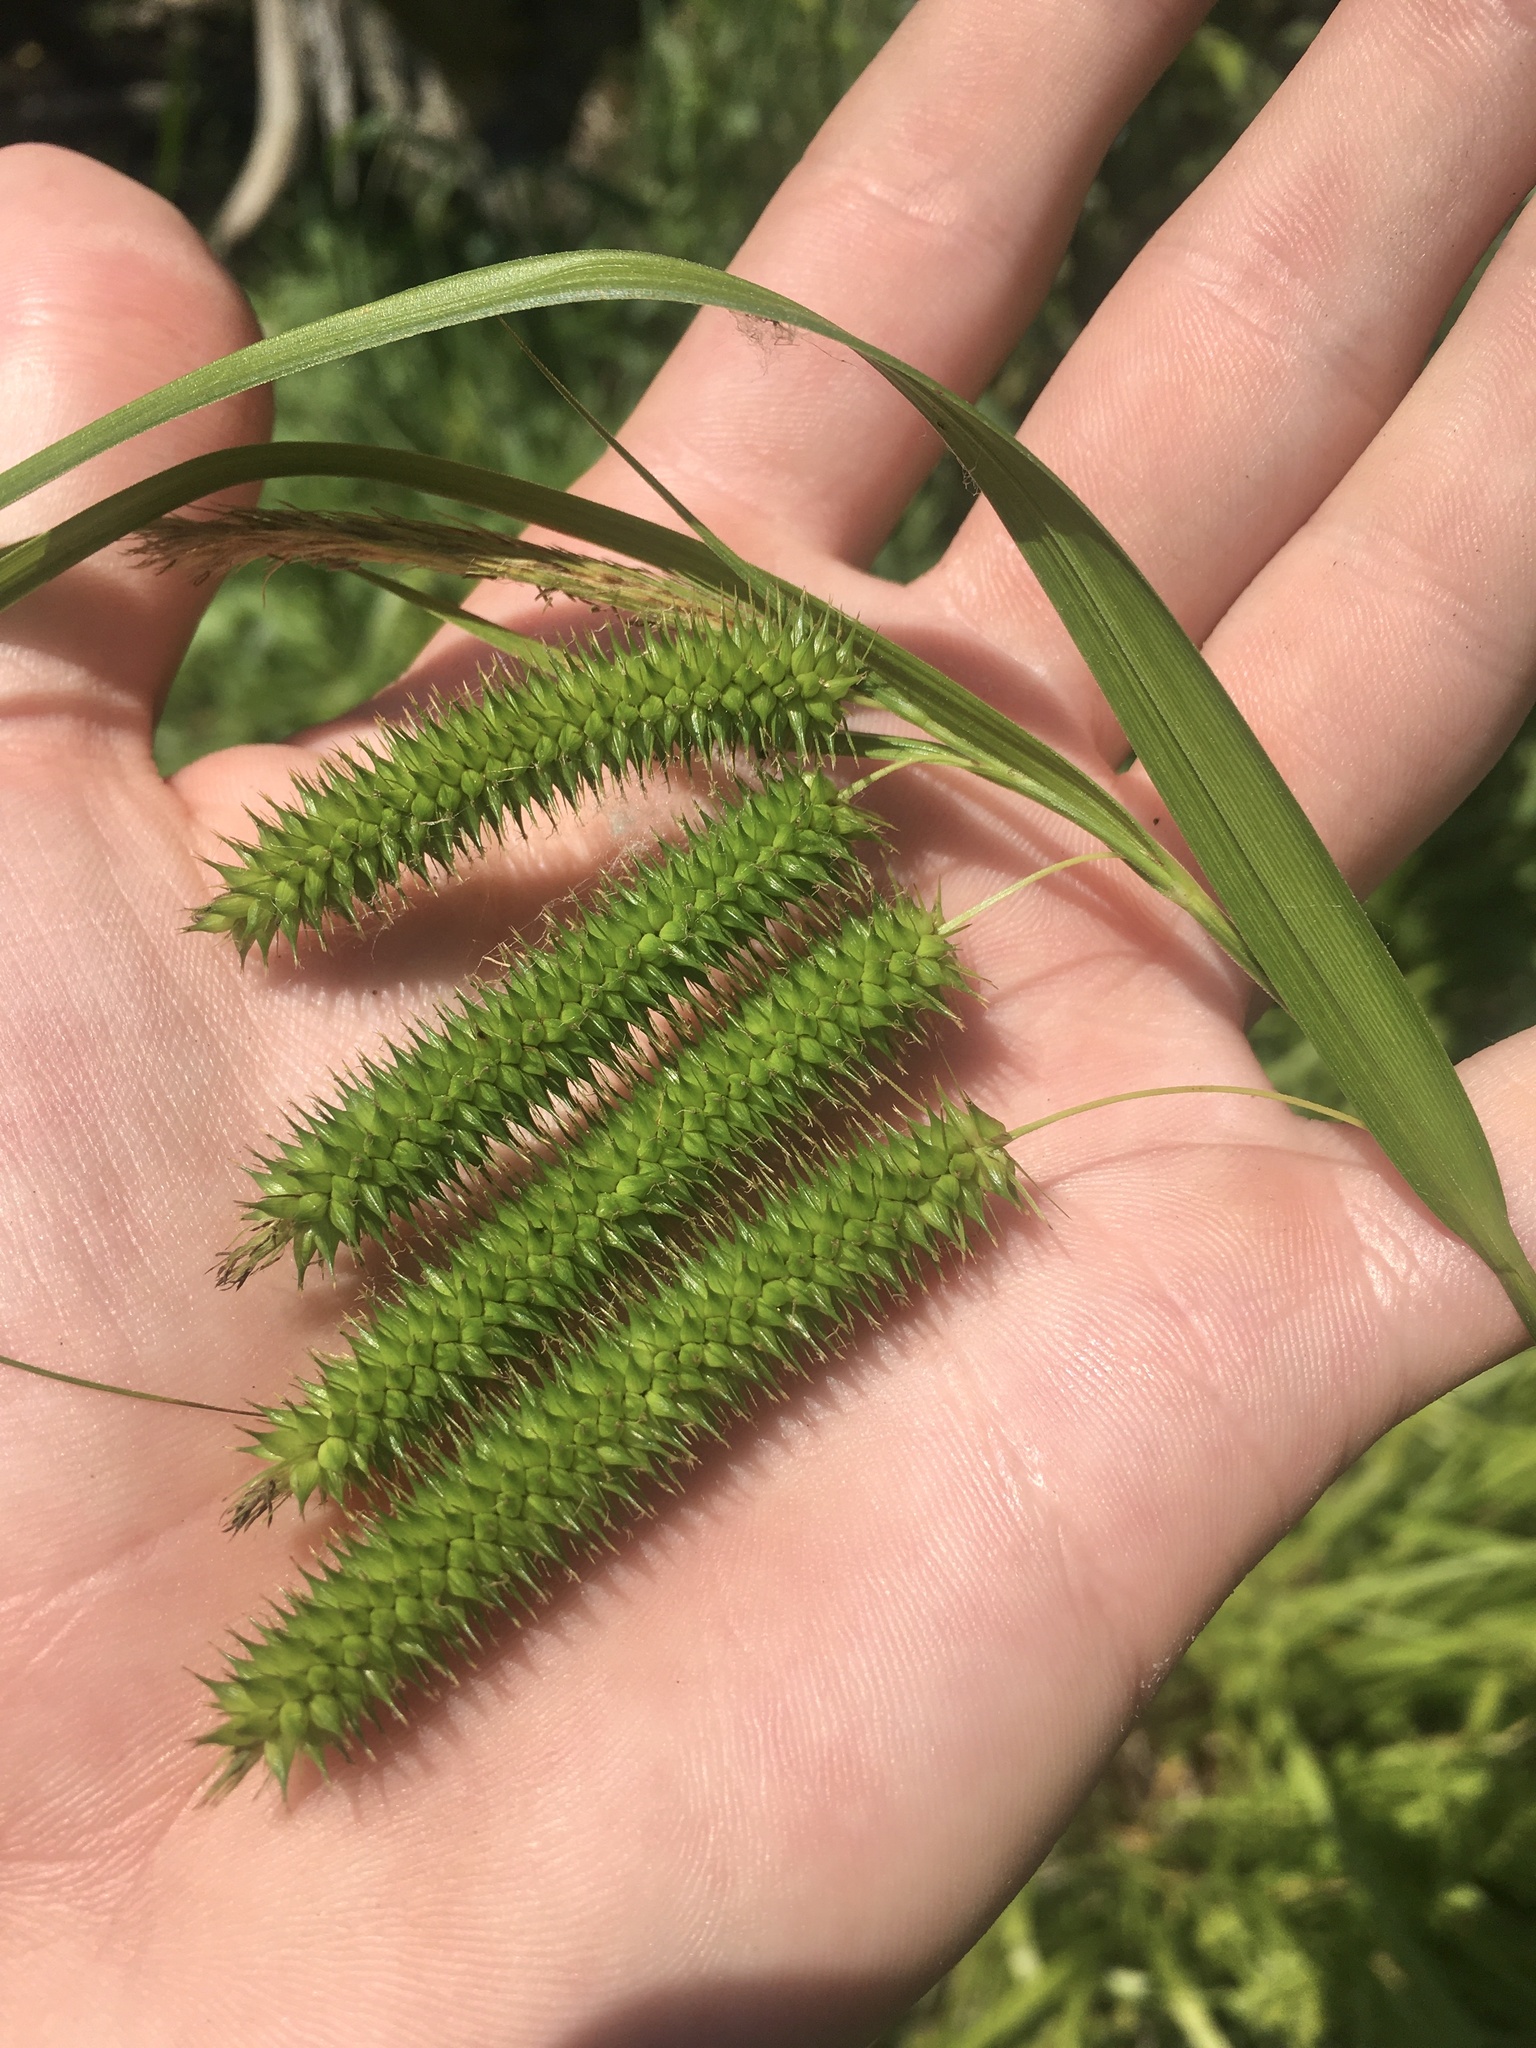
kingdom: Plantae
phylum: Tracheophyta
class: Liliopsida
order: Poales
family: Cyperaceae
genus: Carex
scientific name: Carex pseudocyperus
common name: Cyperus sedge
